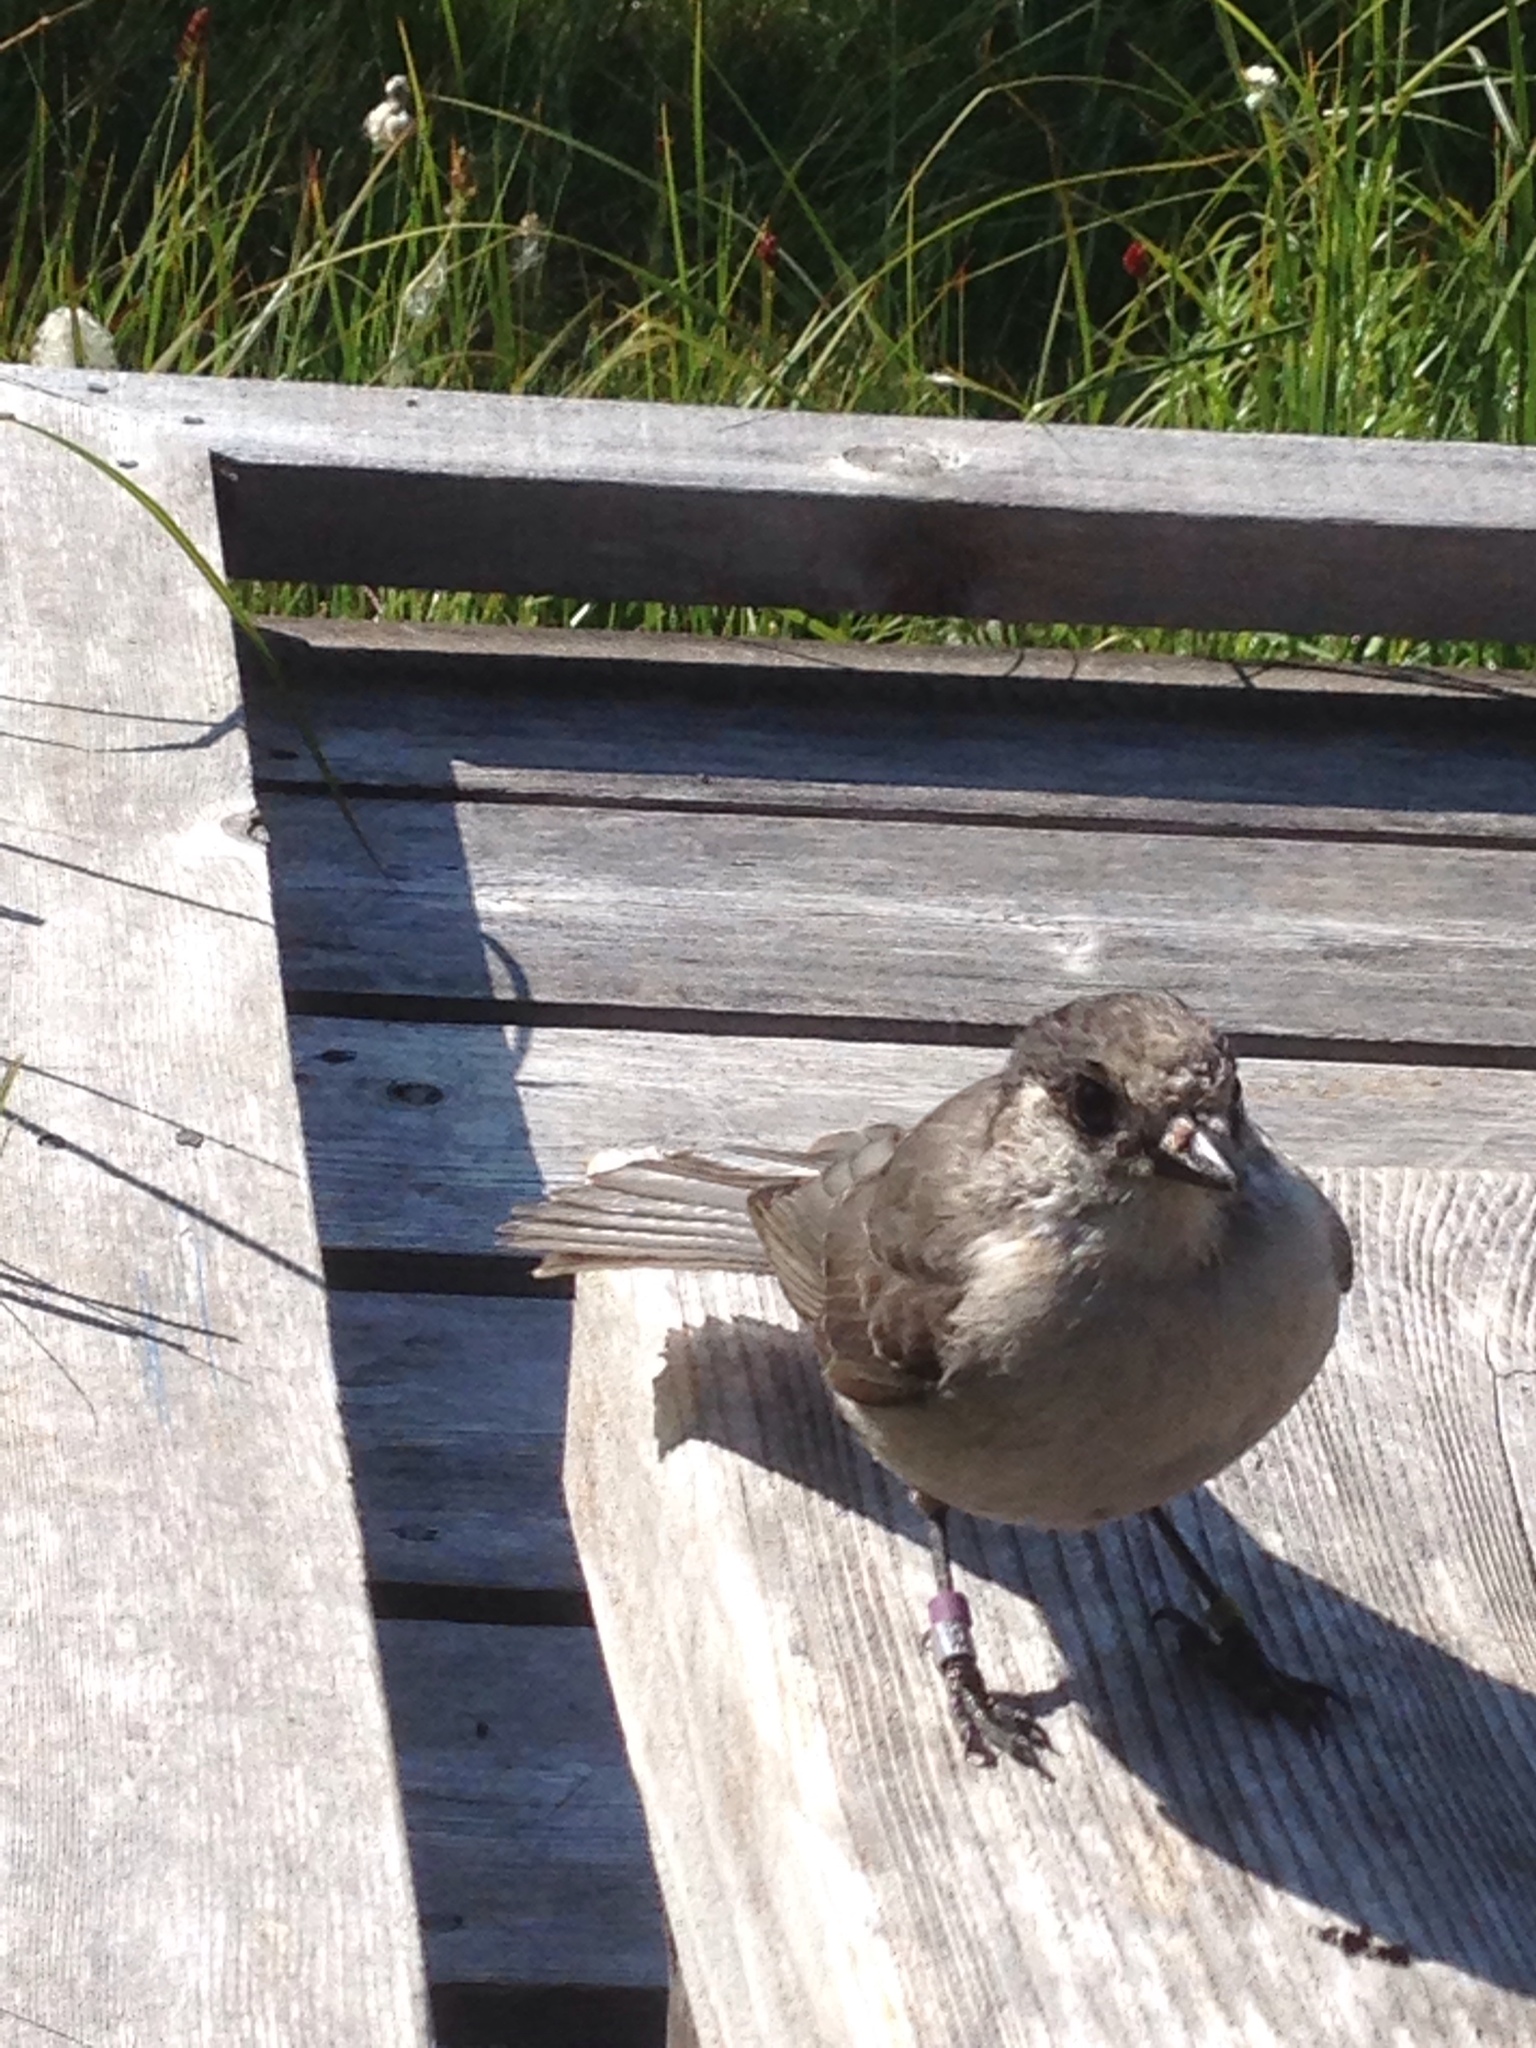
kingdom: Animalia
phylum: Chordata
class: Aves
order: Passeriformes
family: Corvidae
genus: Perisoreus
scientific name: Perisoreus canadensis
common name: Gray jay
